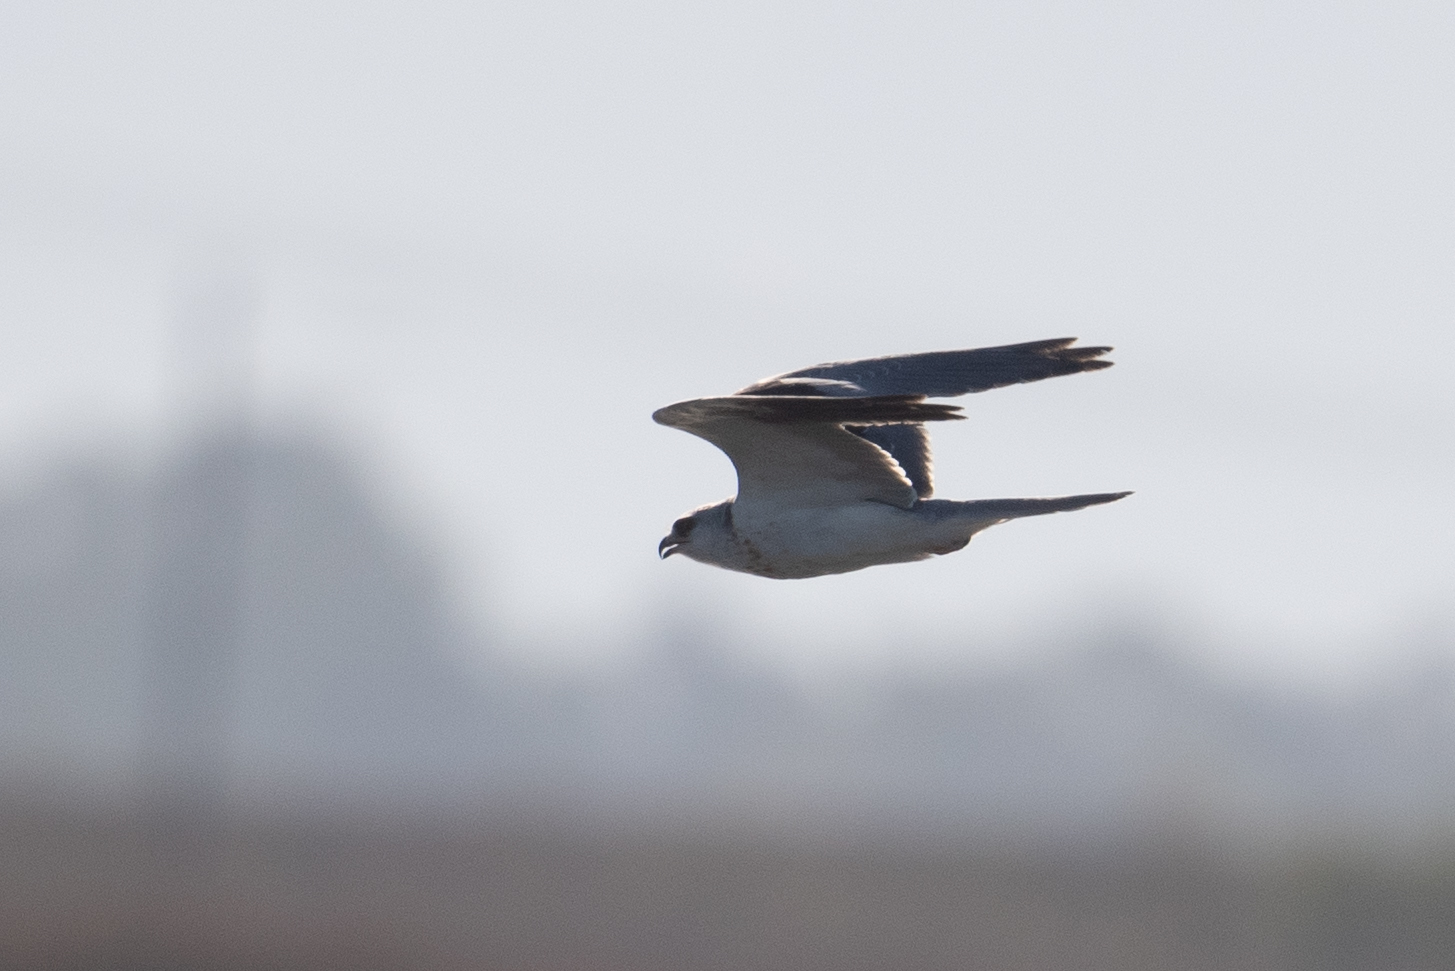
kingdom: Animalia
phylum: Chordata
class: Aves
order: Accipitriformes
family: Accipitridae
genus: Elanus
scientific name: Elanus leucurus
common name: White-tailed kite
